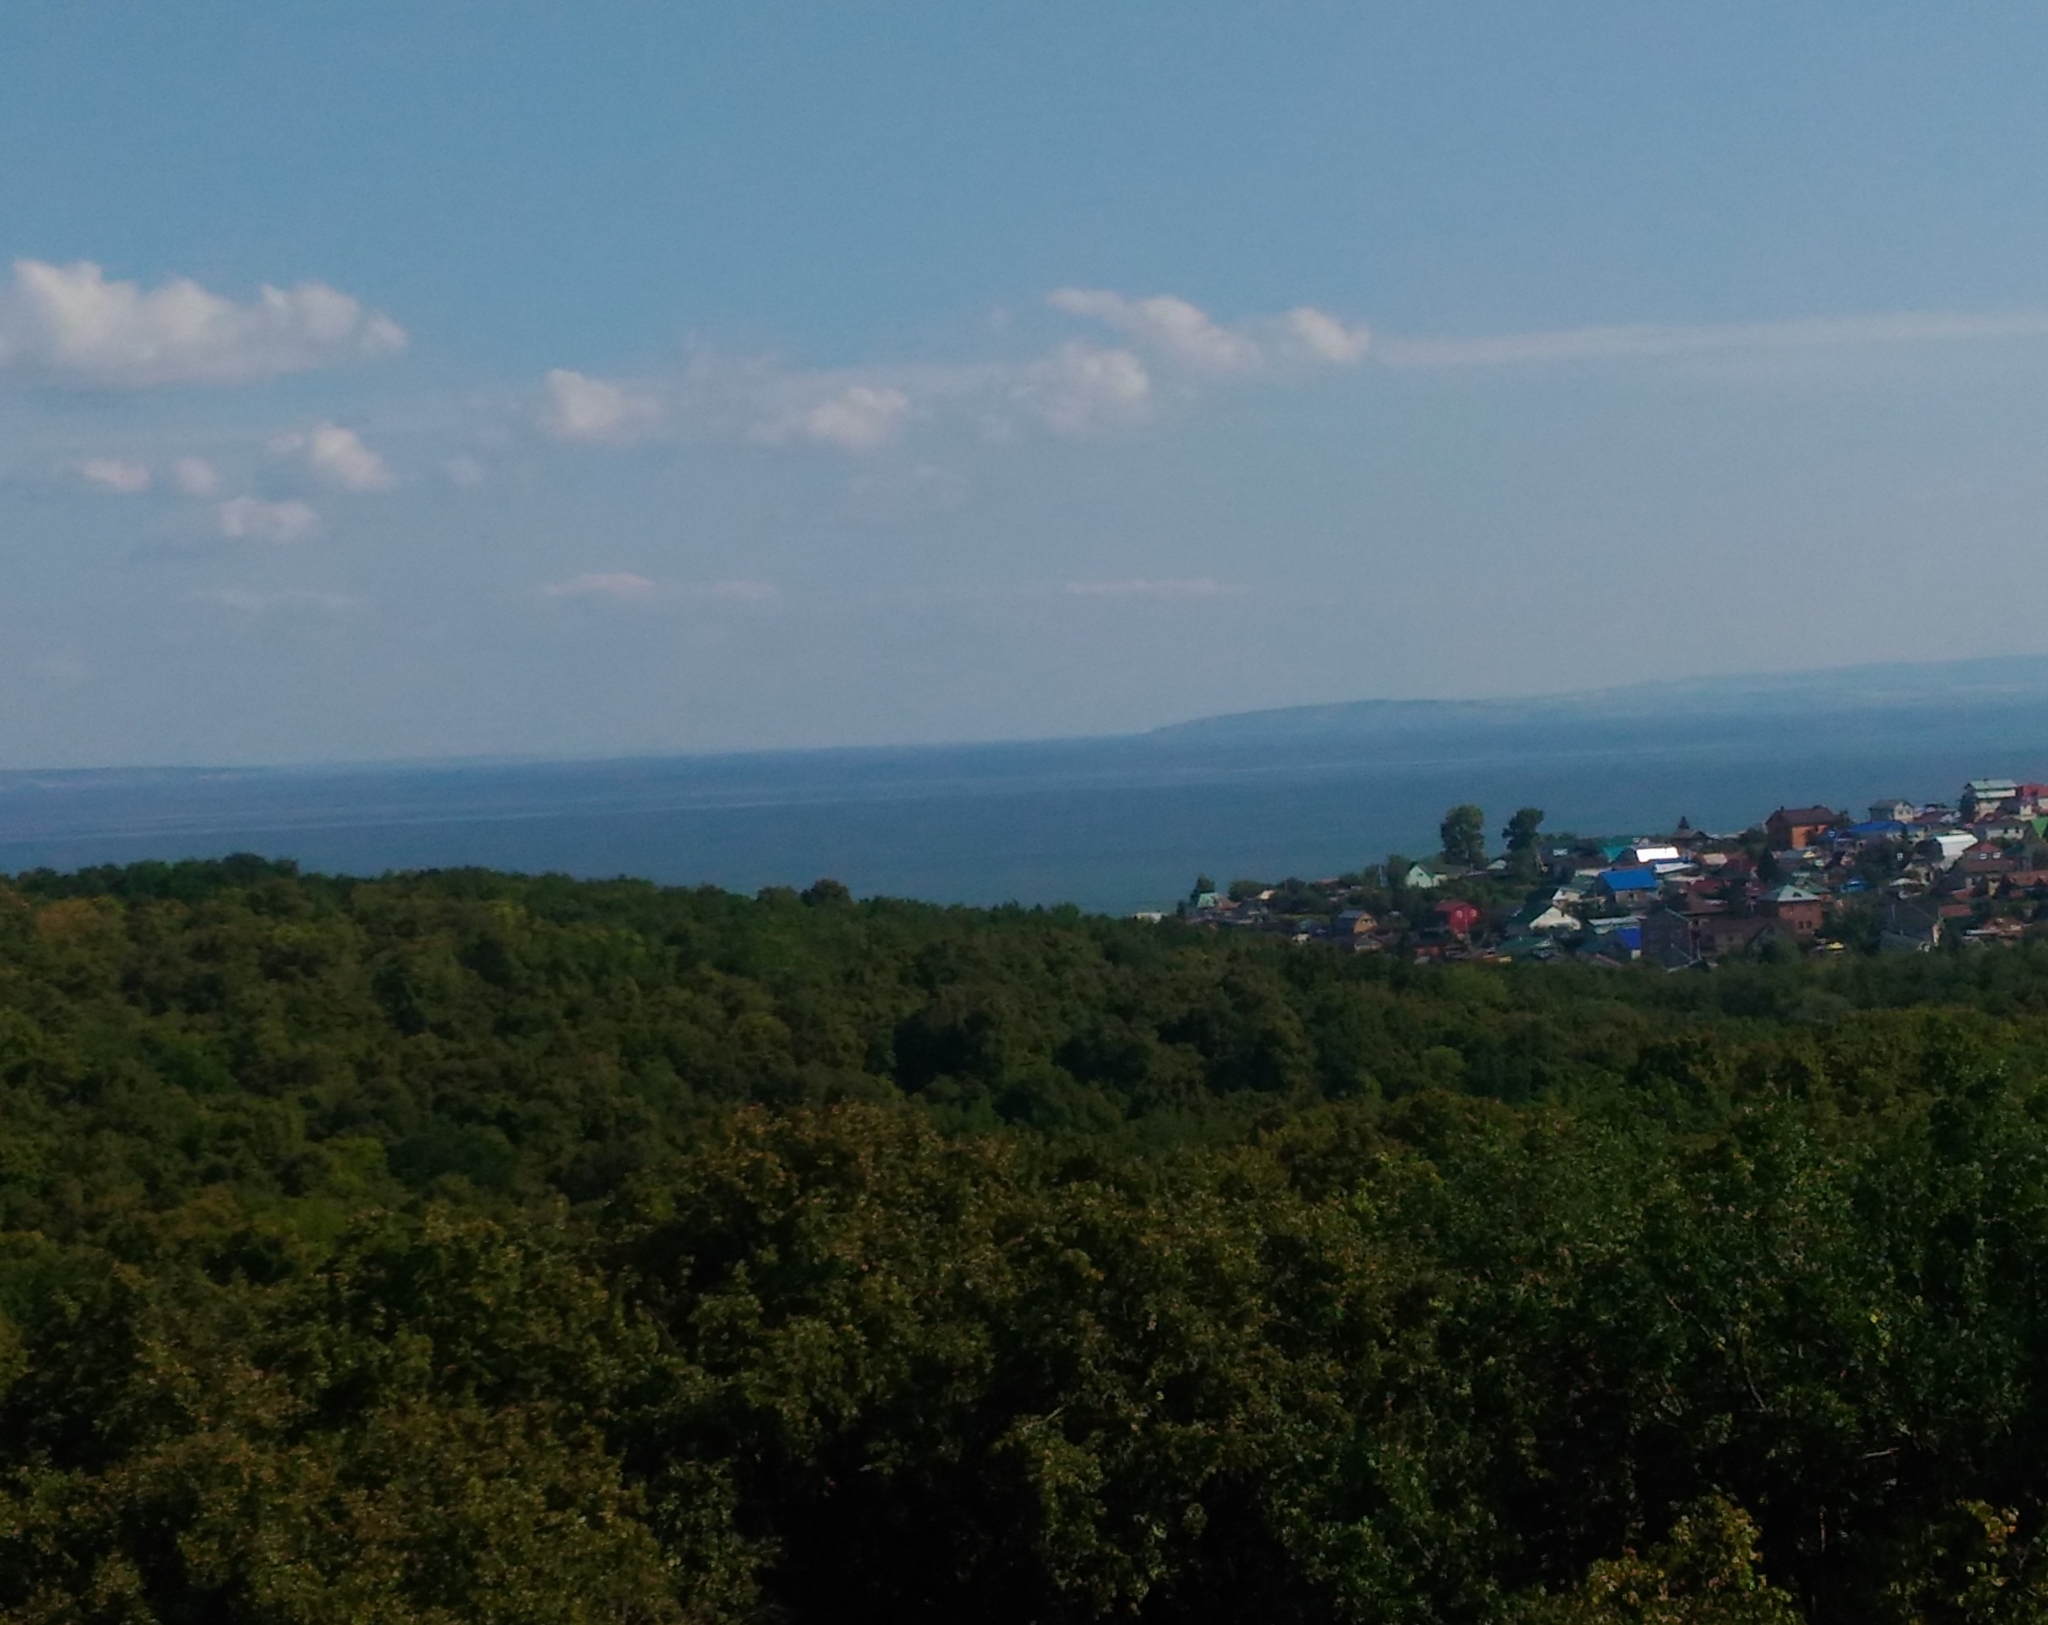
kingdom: Plantae
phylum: Tracheophyta
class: Magnoliopsida
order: Fagales
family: Fagaceae
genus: Quercus
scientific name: Quercus robur
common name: Pedunculate oak
